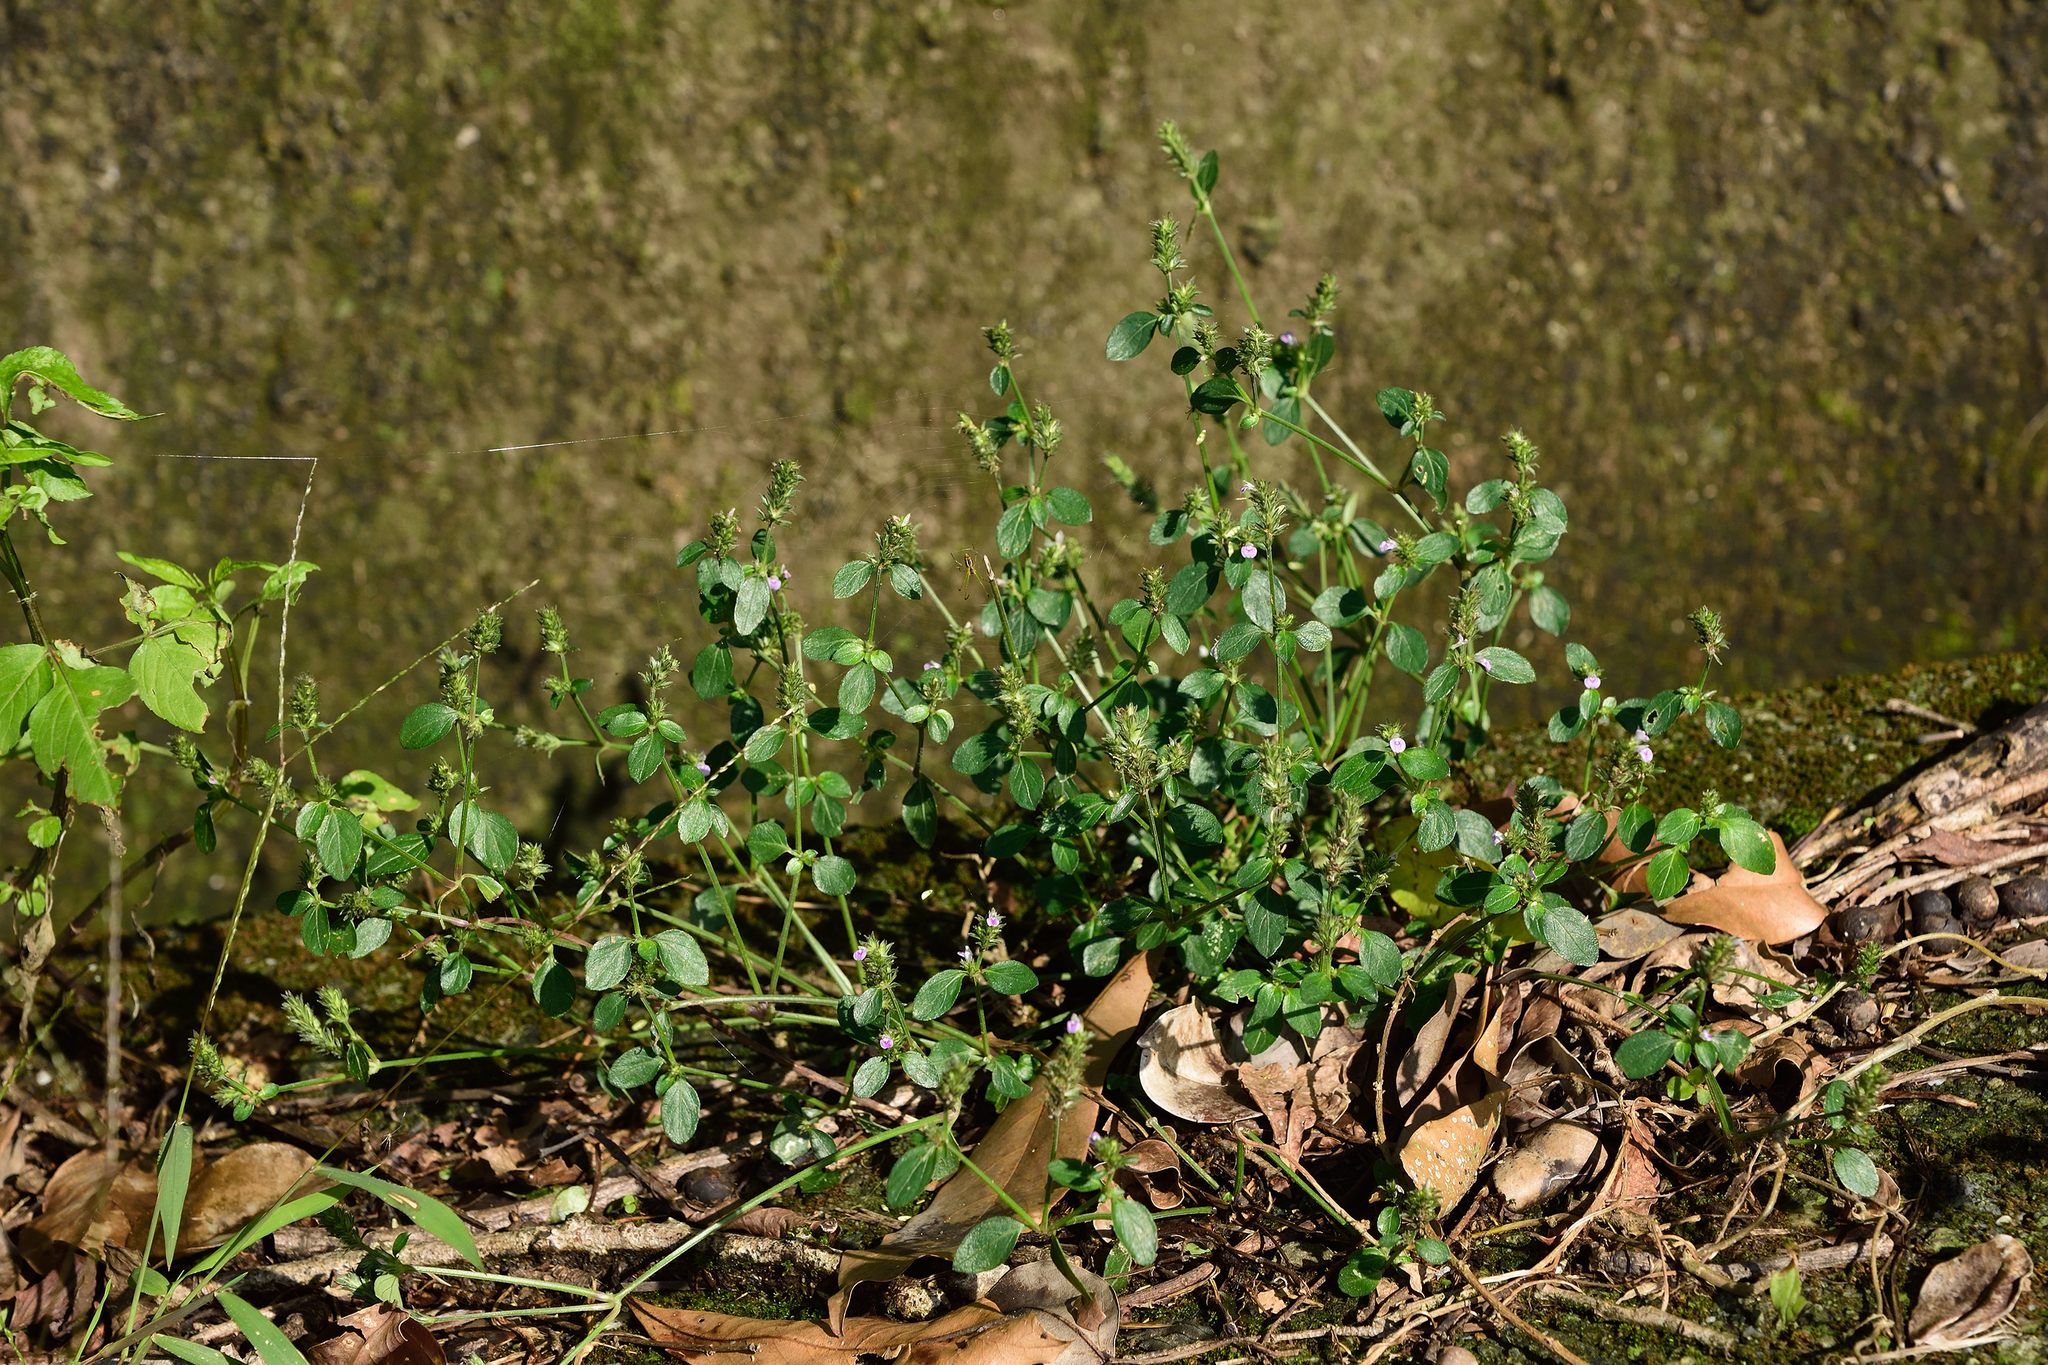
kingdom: Plantae
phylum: Tracheophyta
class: Magnoliopsida
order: Lamiales
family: Acanthaceae
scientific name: Acanthaceae
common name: Acanthaceae
